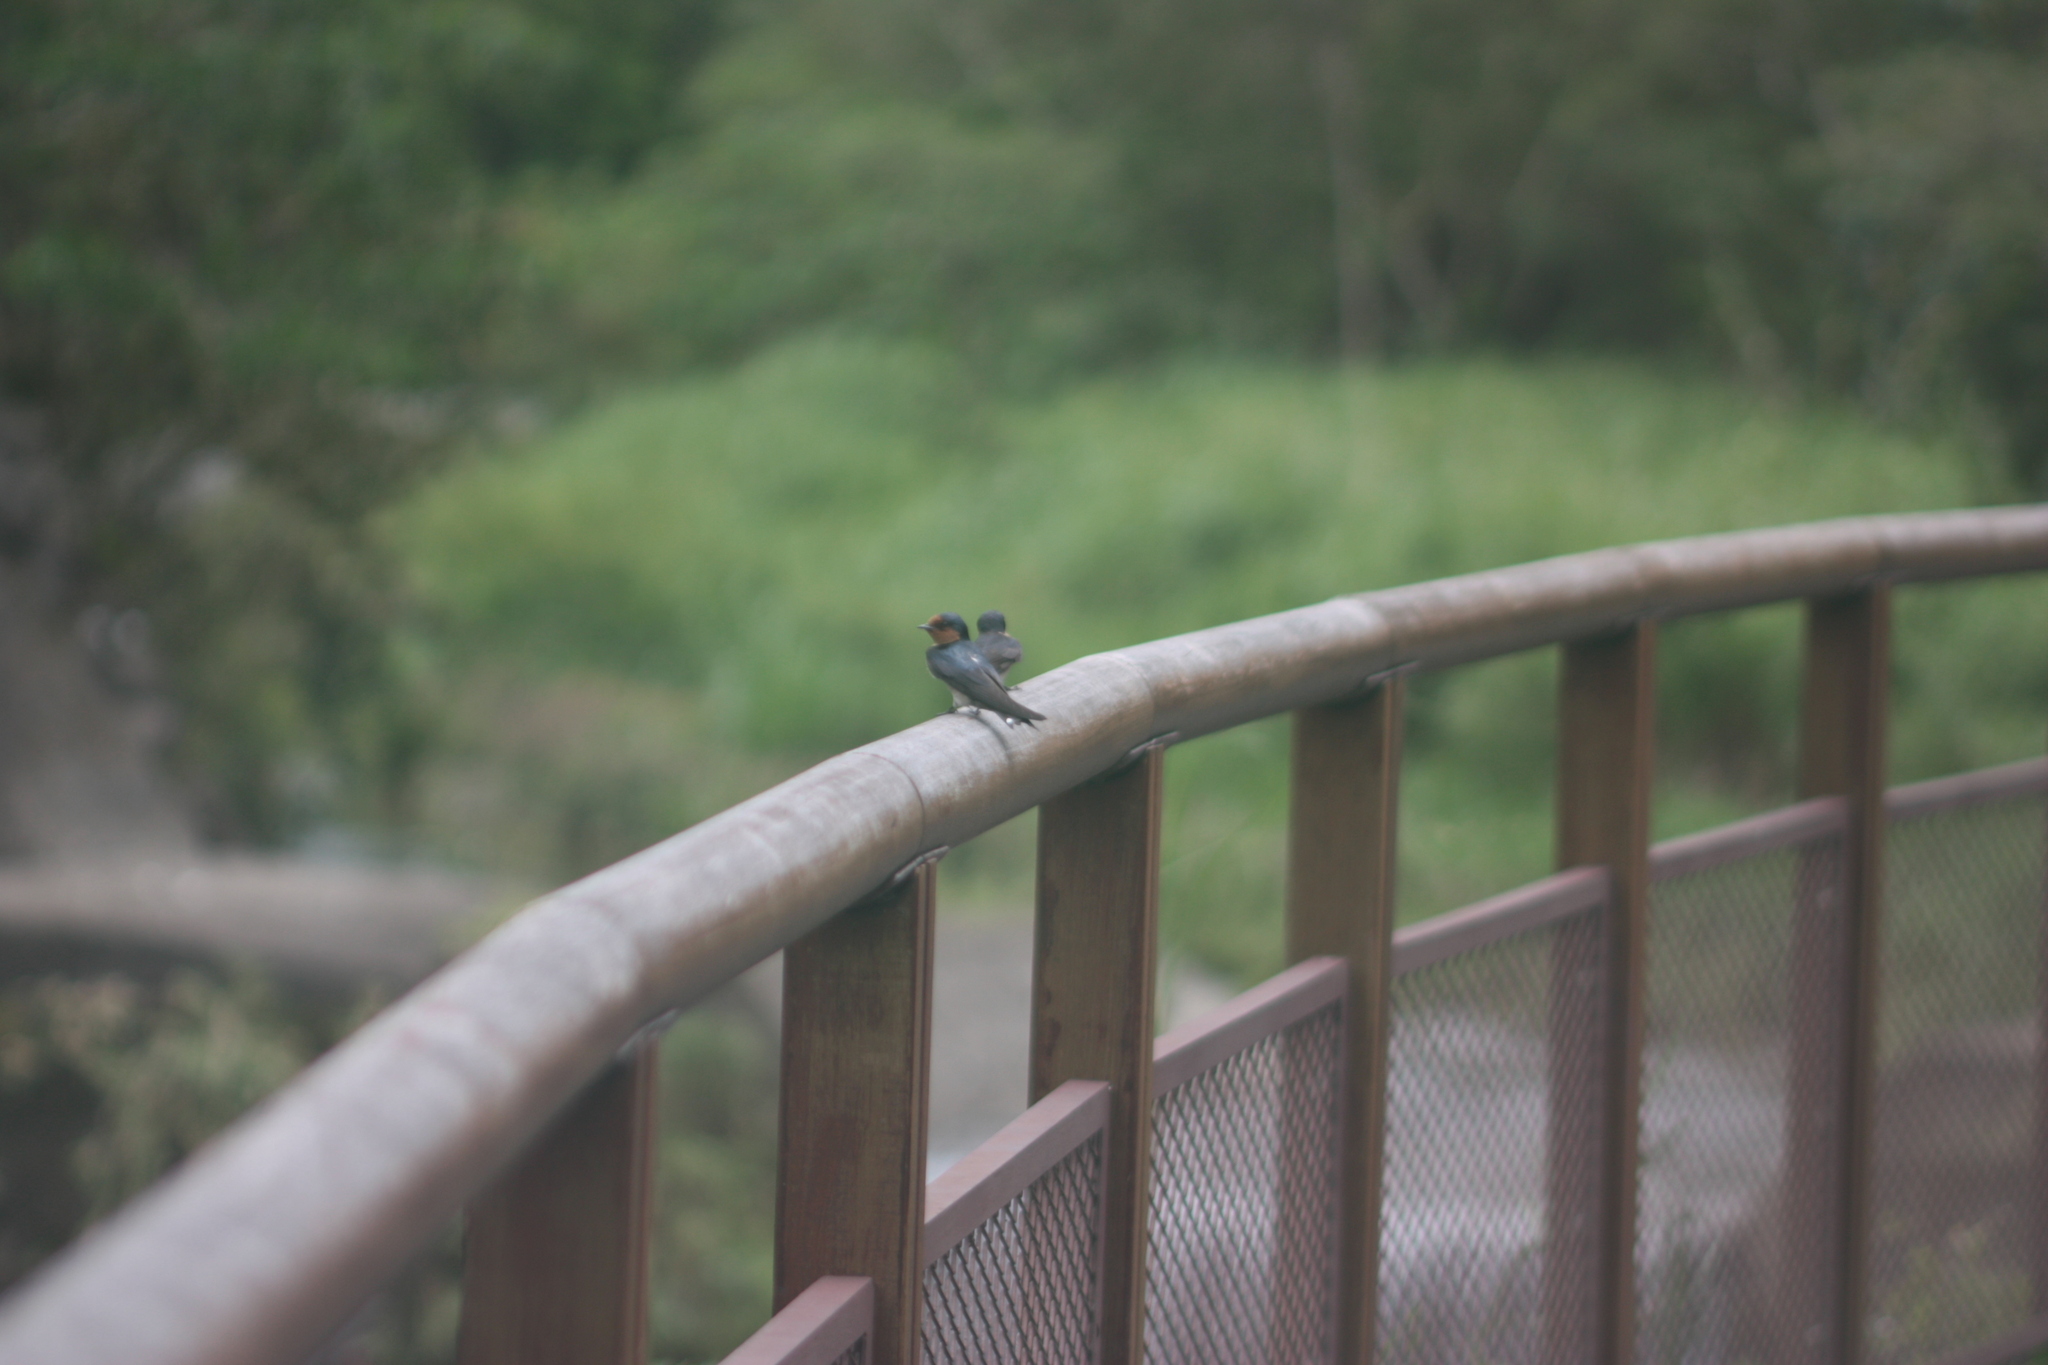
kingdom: Animalia
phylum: Chordata
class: Aves
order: Passeriformes
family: Hirundinidae
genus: Hirundo
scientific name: Hirundo tahitica
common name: Pacific swallow
